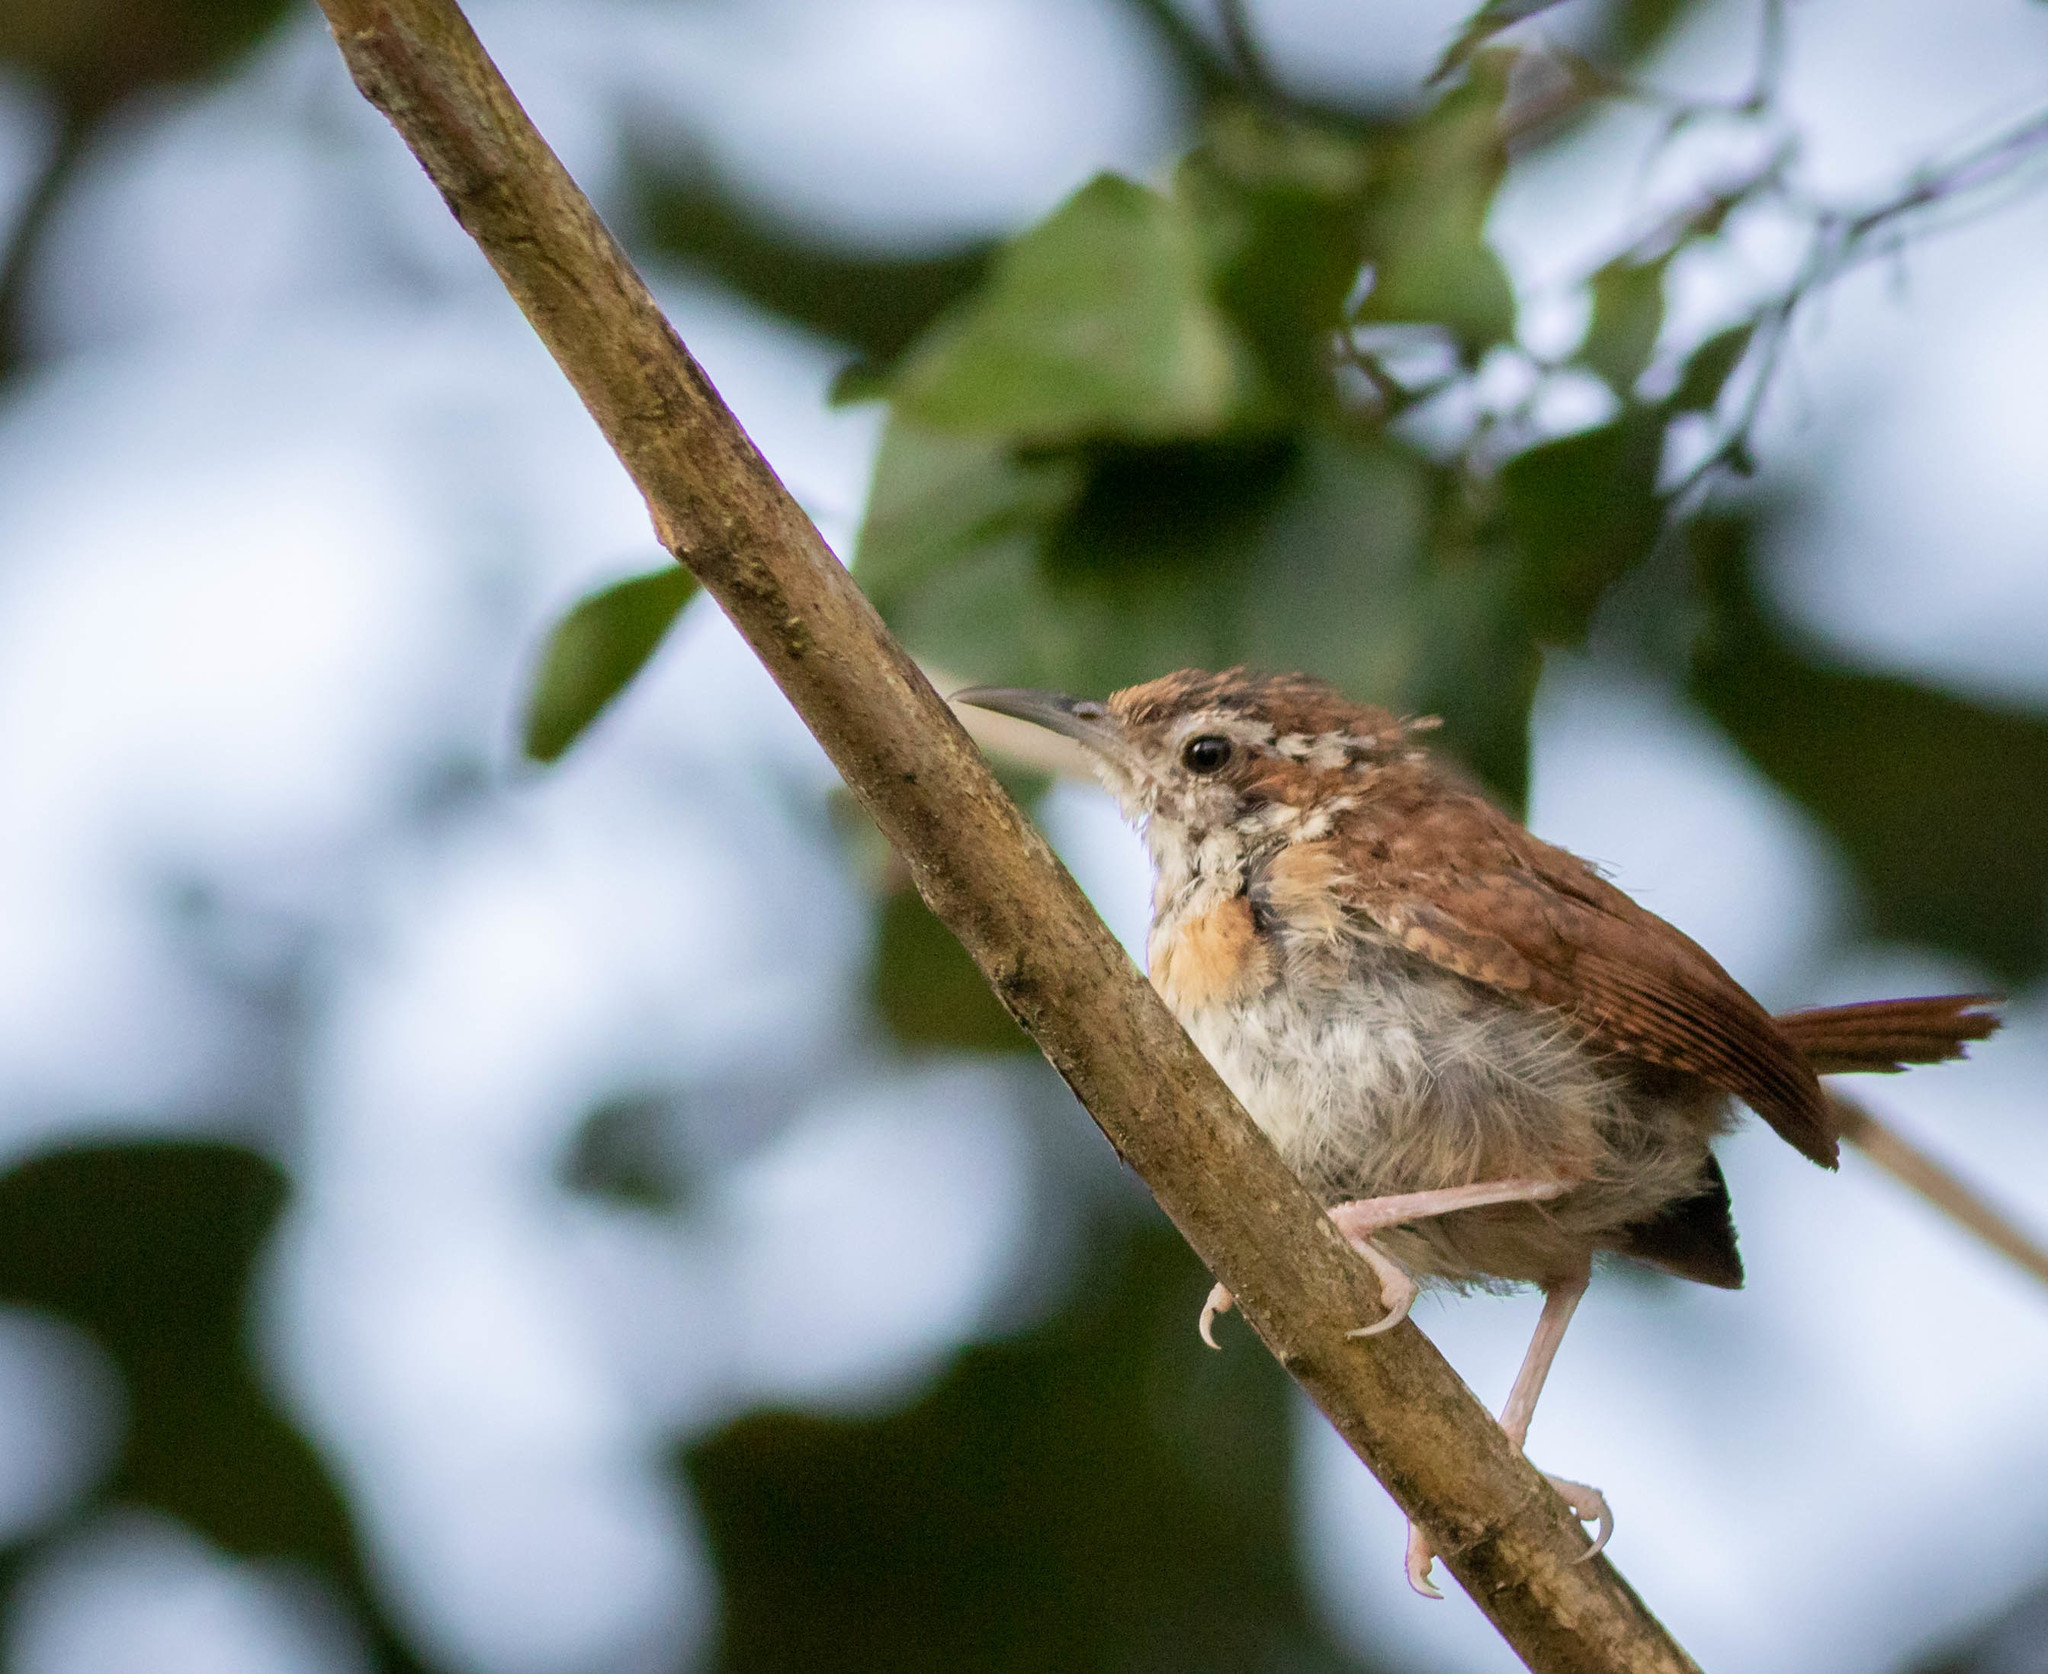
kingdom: Animalia
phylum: Chordata
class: Aves
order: Passeriformes
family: Troglodytidae
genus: Thryothorus
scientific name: Thryothorus ludovicianus
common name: Carolina wren
